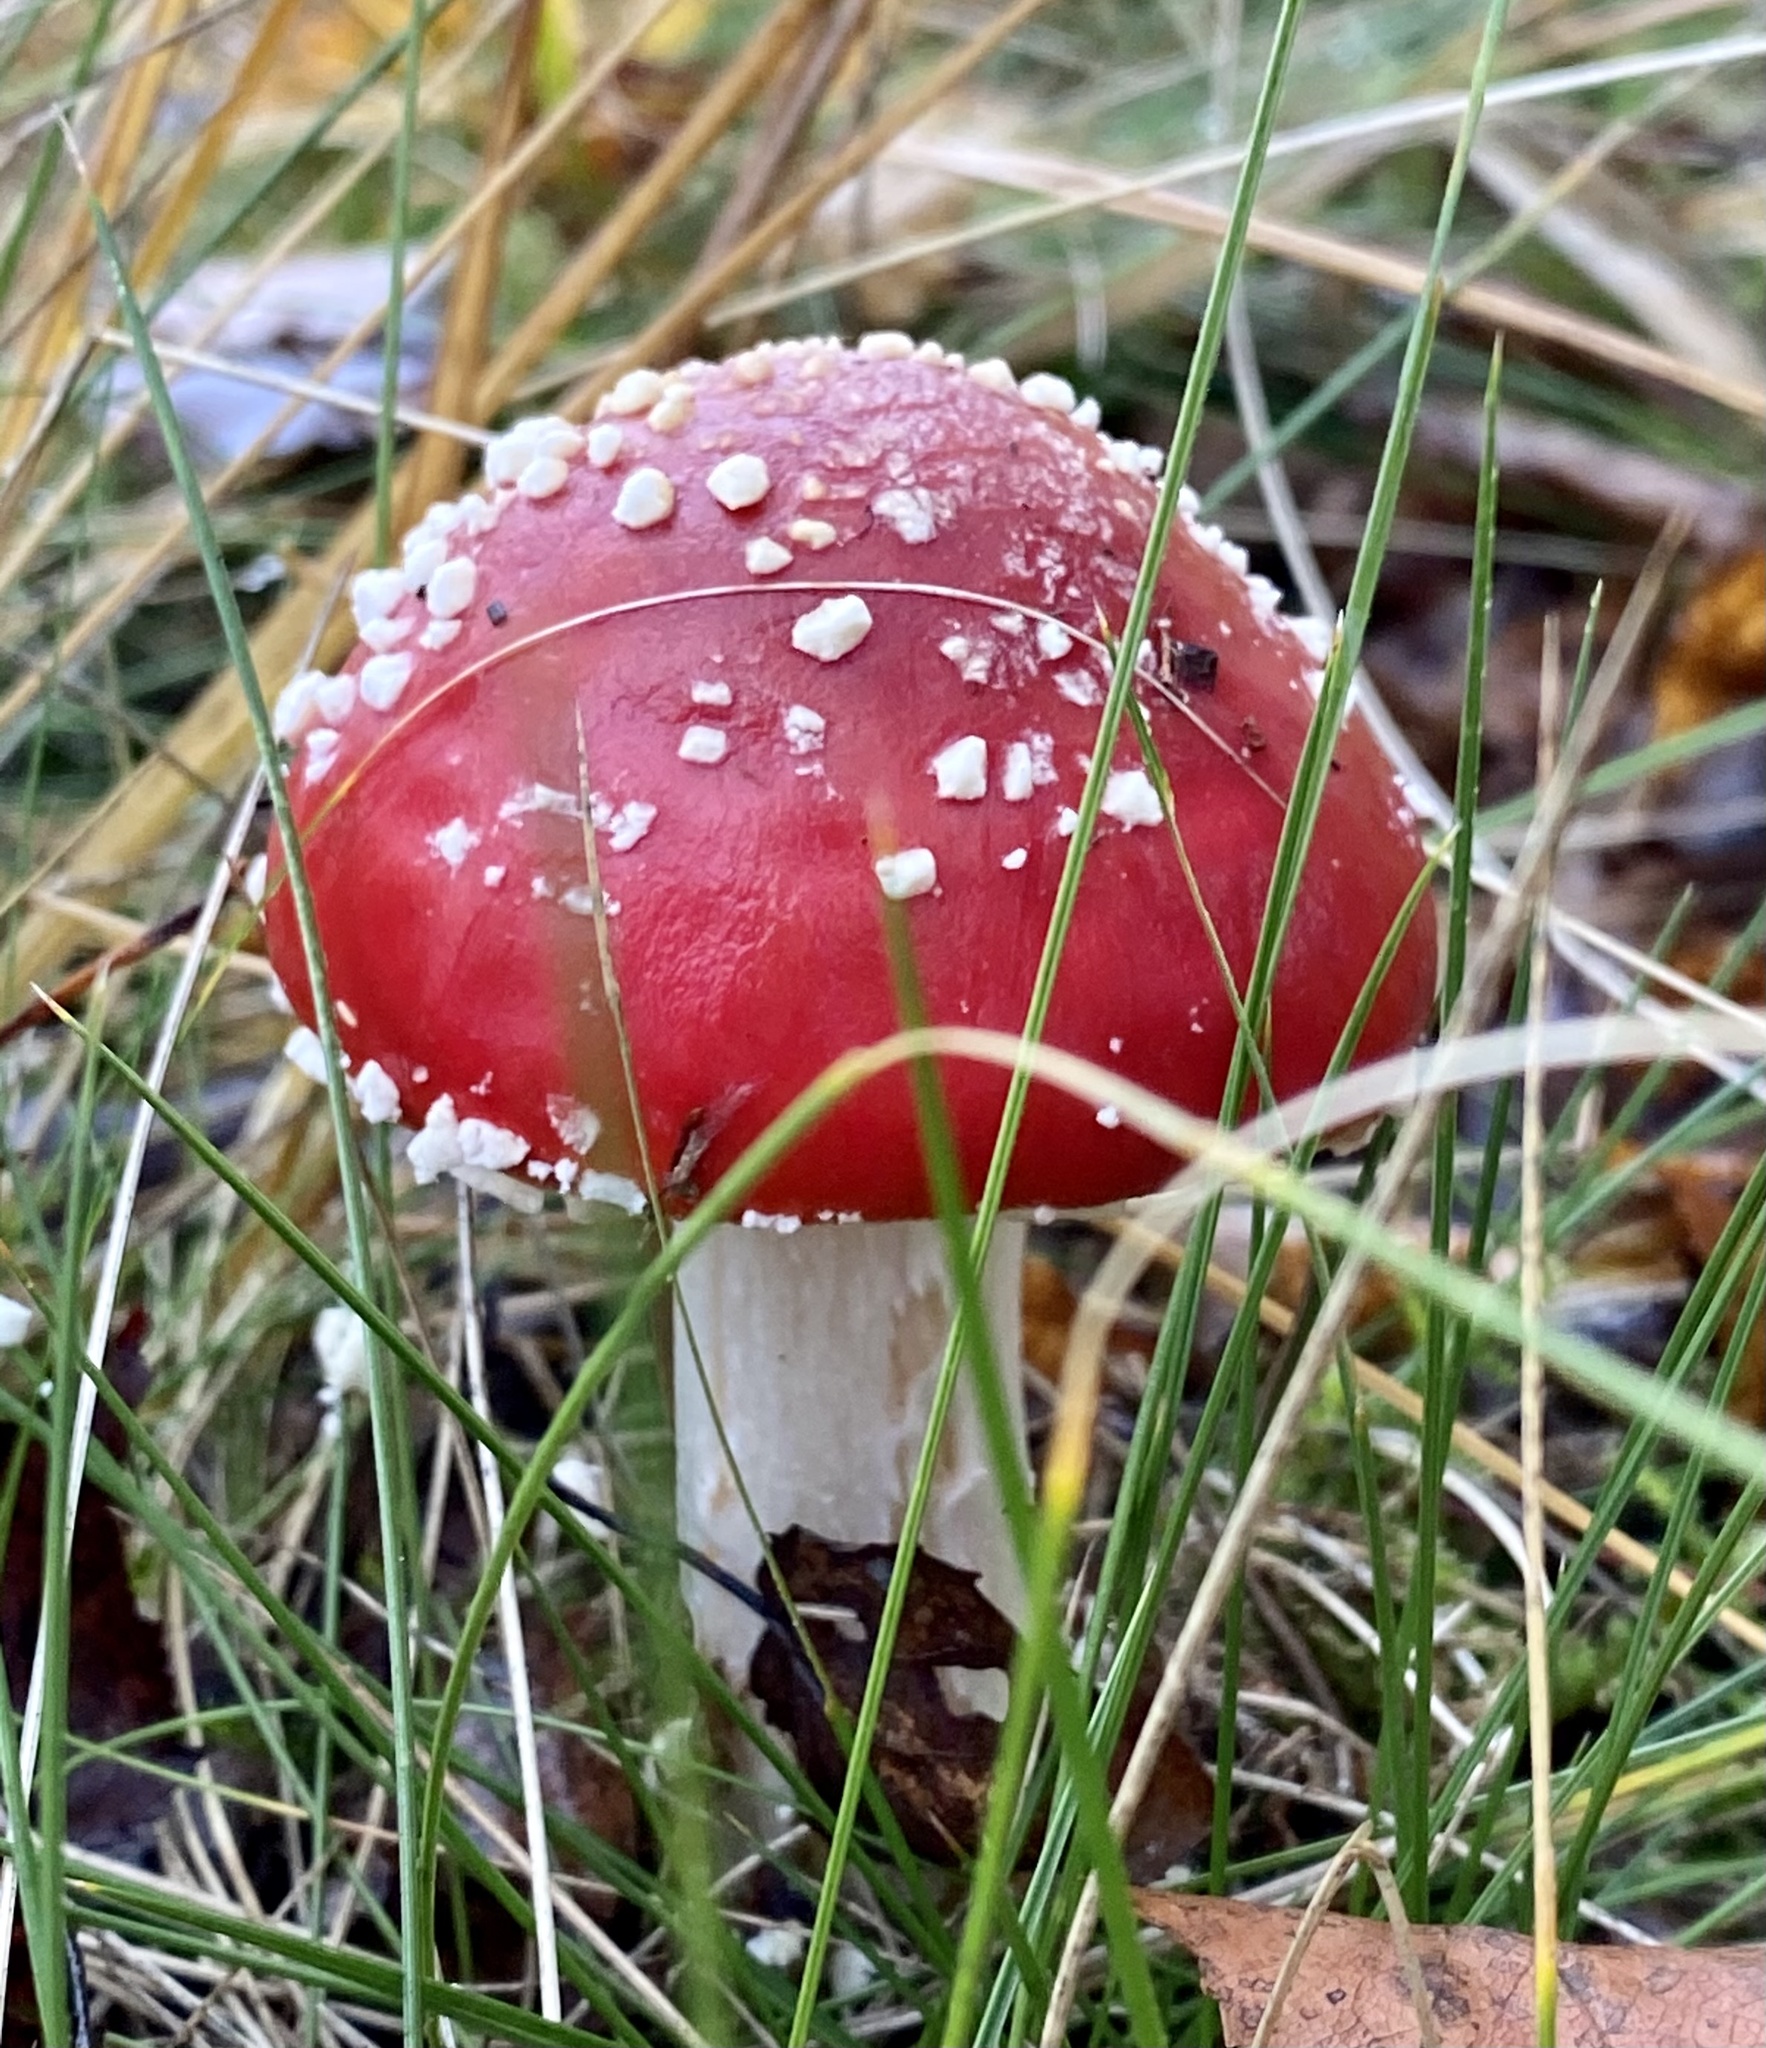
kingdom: Fungi
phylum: Basidiomycota
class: Agaricomycetes
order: Agaricales
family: Amanitaceae
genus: Amanita
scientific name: Amanita muscaria
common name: Fly agaric
